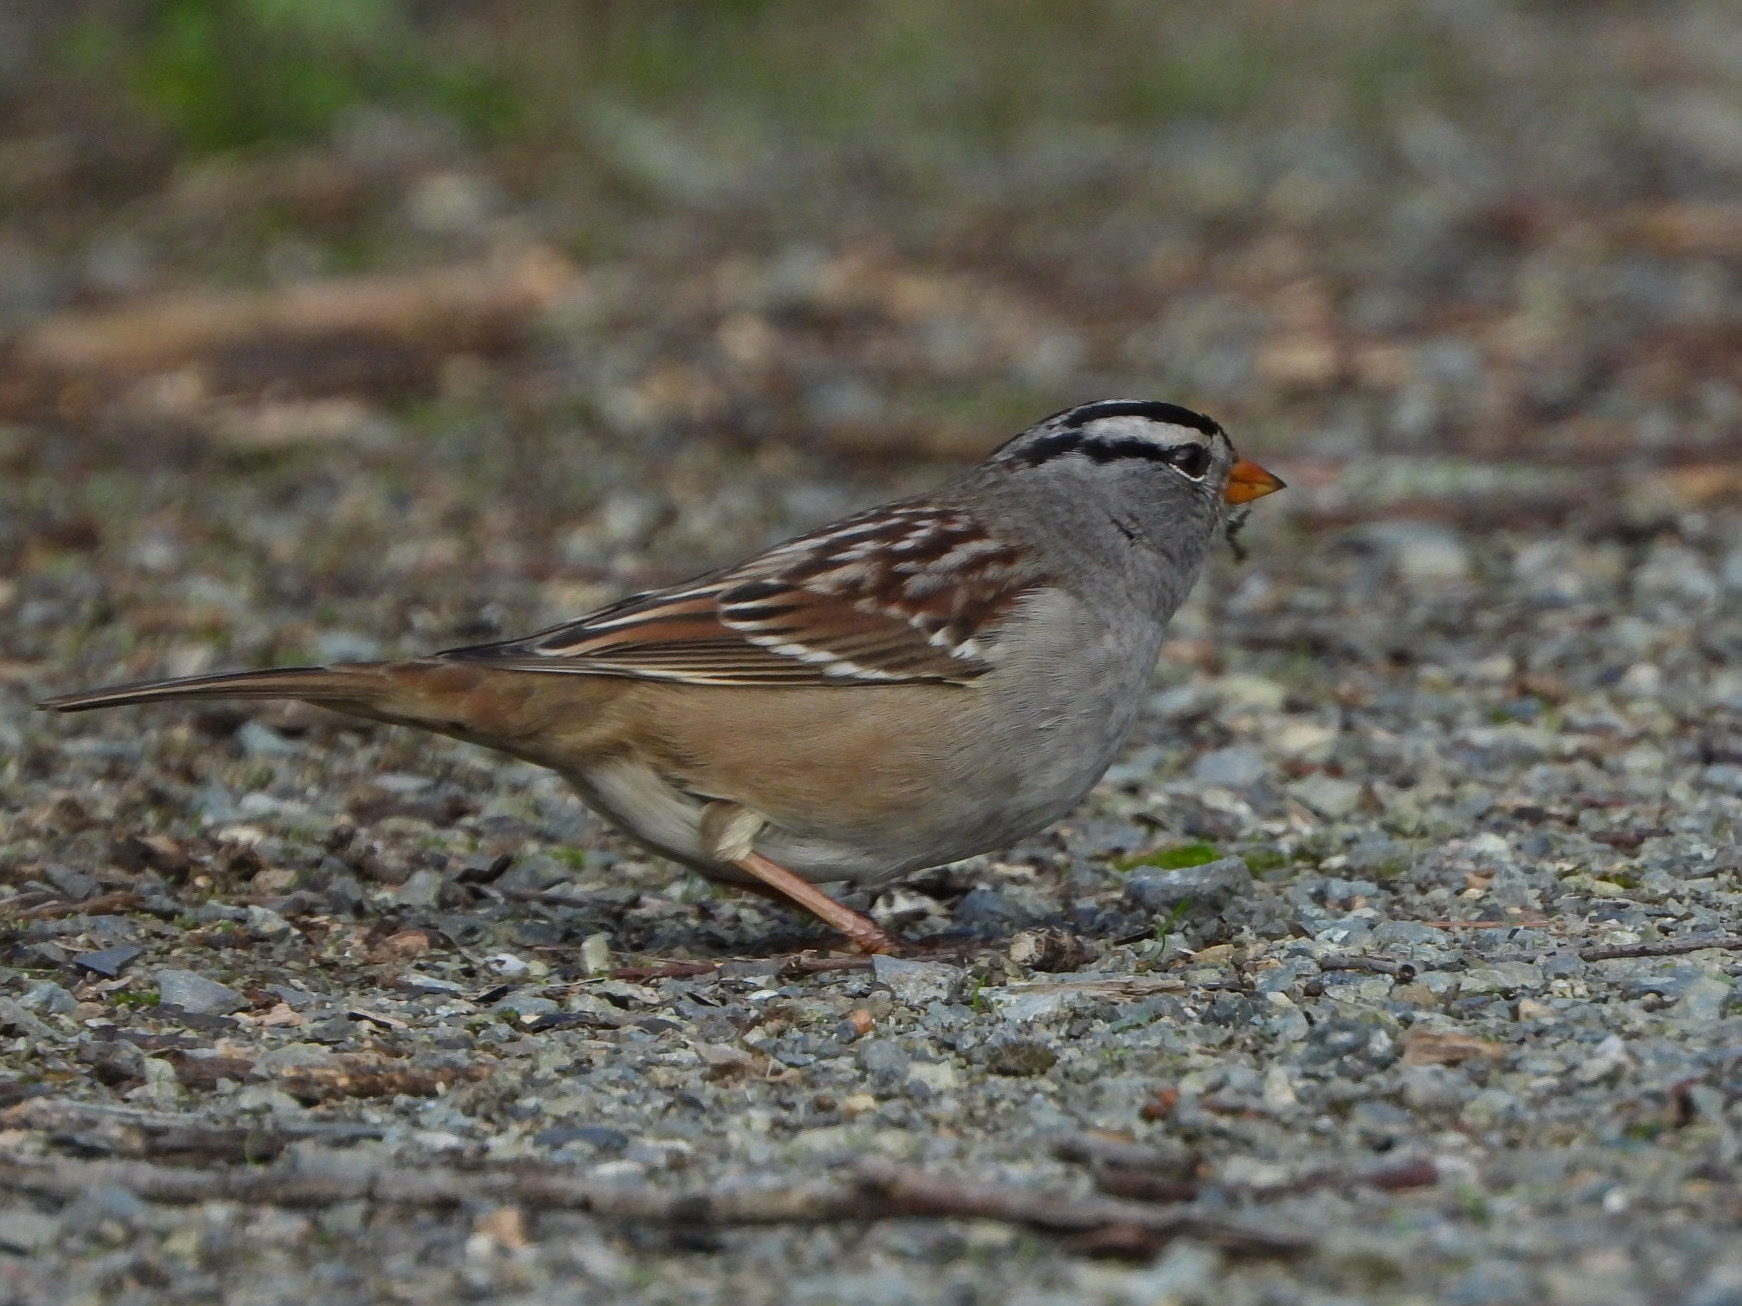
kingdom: Animalia
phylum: Chordata
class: Aves
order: Passeriformes
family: Passerellidae
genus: Zonotrichia
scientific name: Zonotrichia leucophrys
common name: White-crowned sparrow
